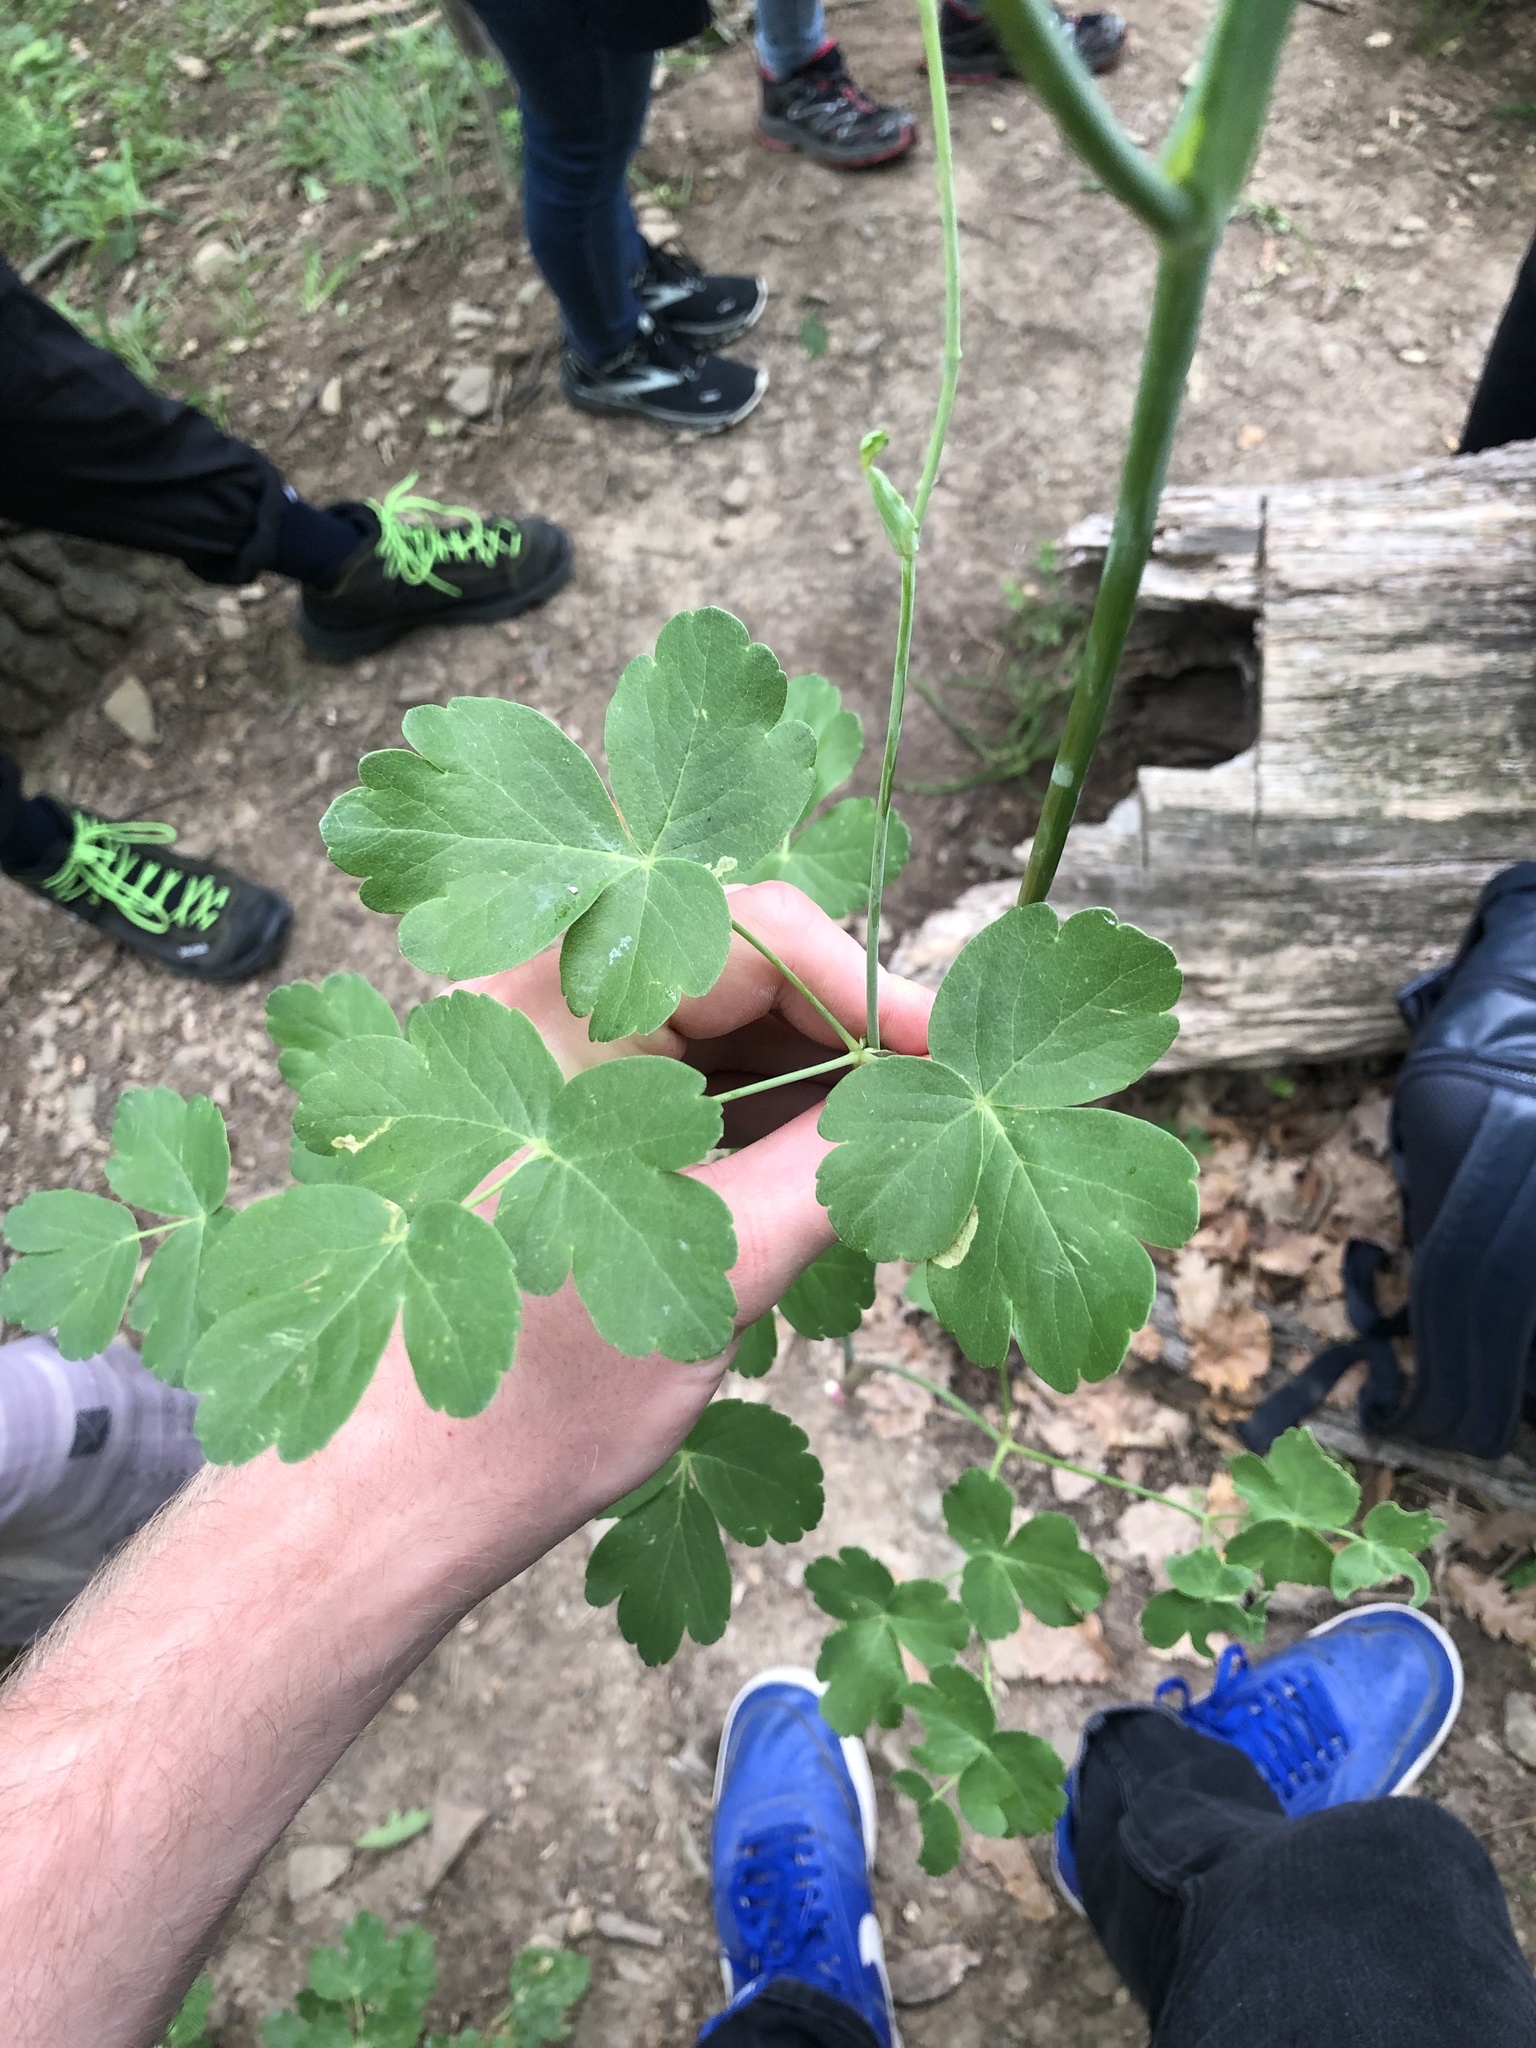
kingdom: Plantae
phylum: Tracheophyta
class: Magnoliopsida
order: Apiales
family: Apiaceae
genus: Laser
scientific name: Laser trilobum
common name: Laser
